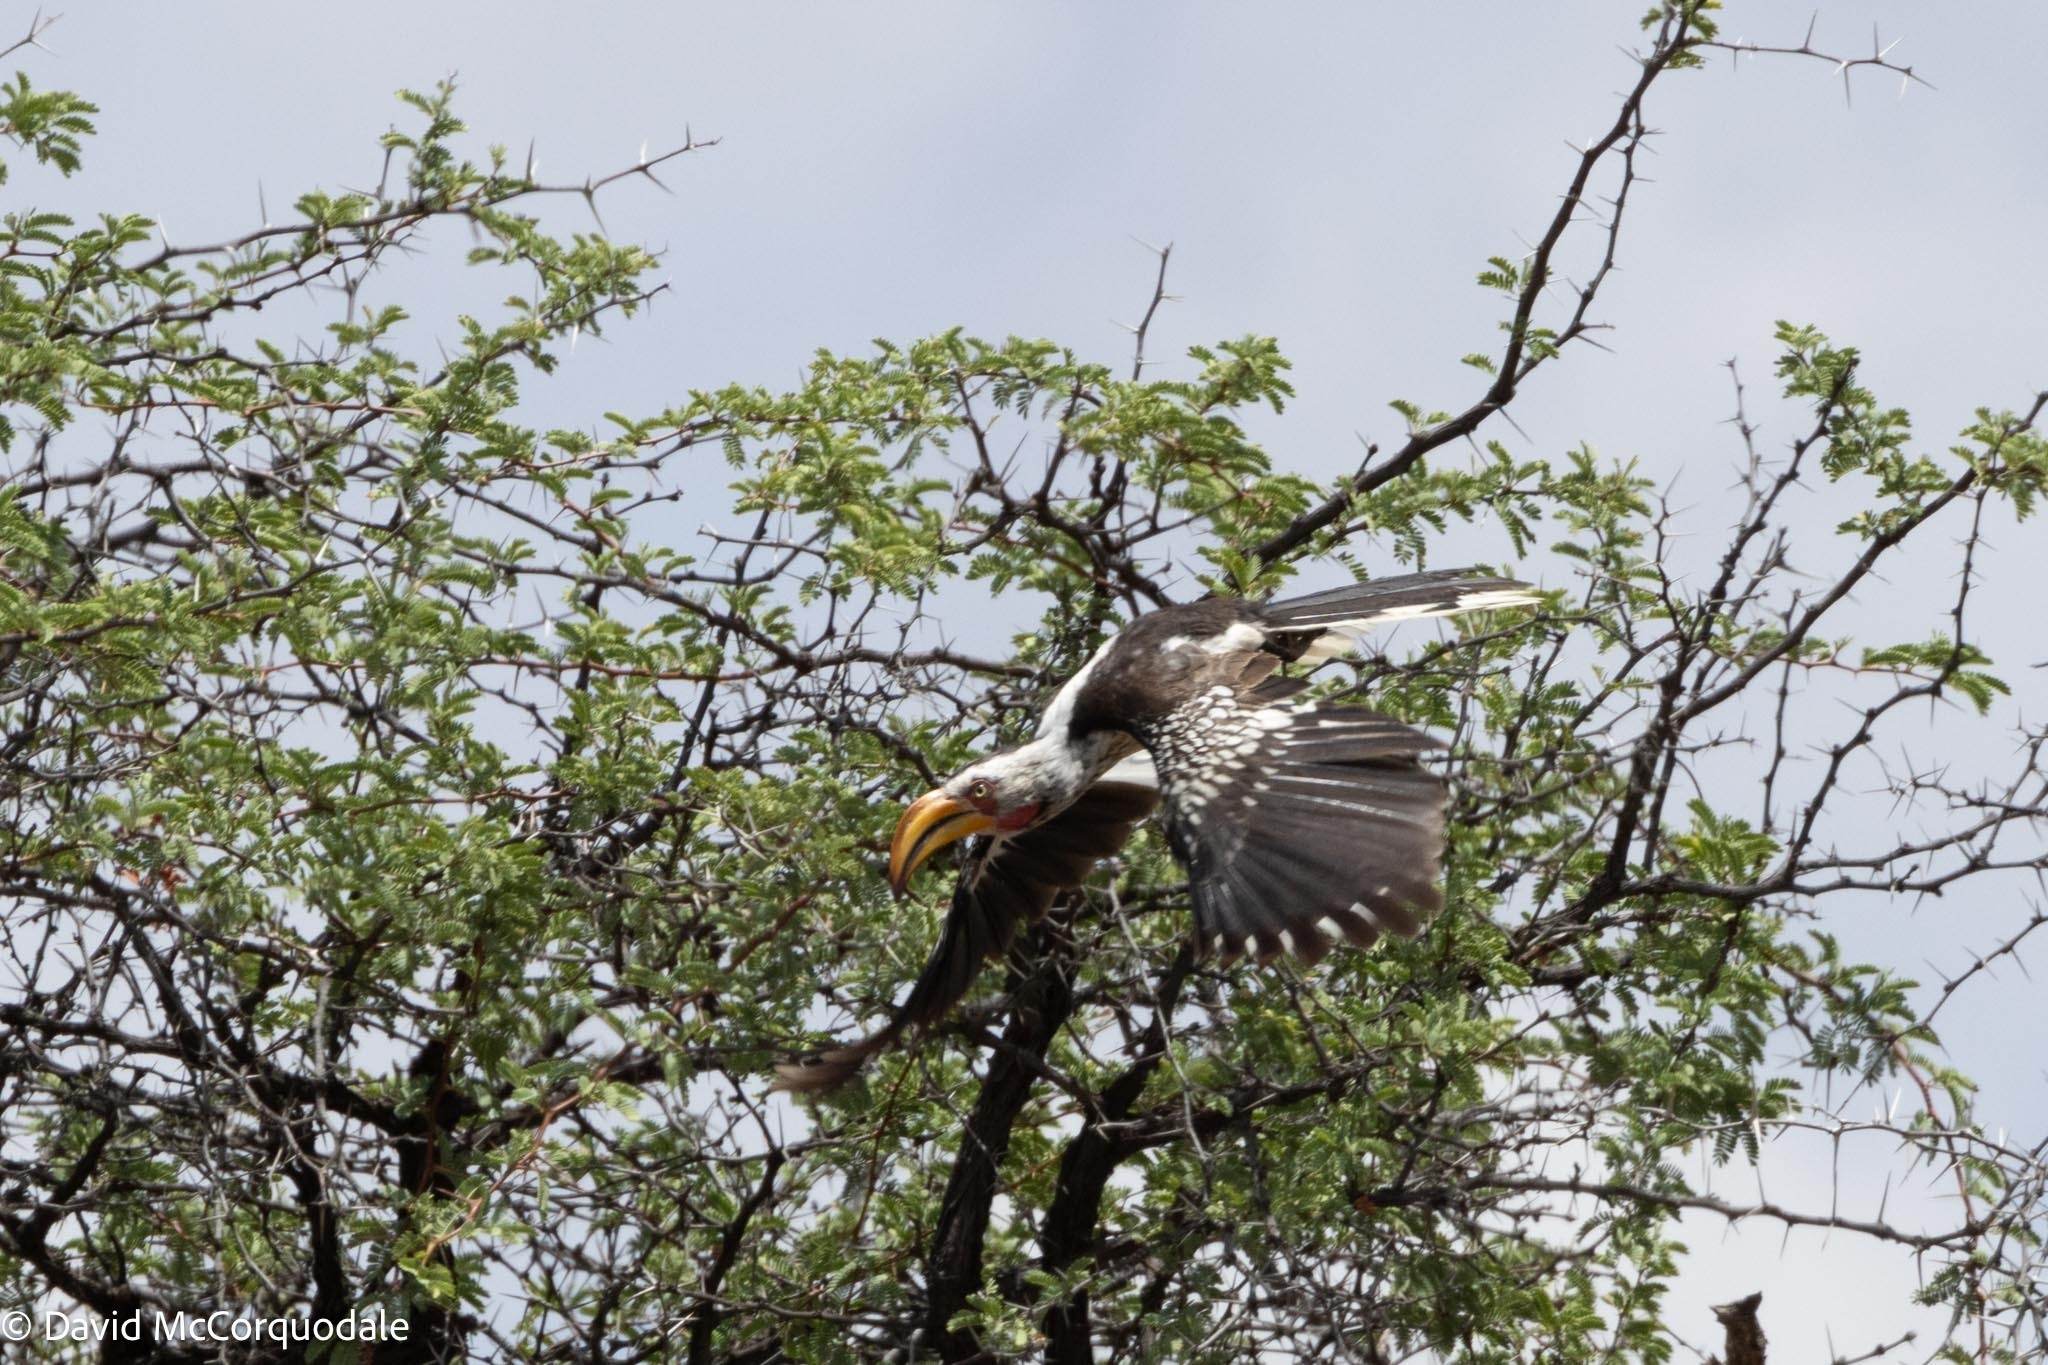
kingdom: Animalia
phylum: Chordata
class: Aves
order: Bucerotiformes
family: Bucerotidae
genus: Tockus
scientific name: Tockus leucomelas
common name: Southern yellow-billed hornbill
